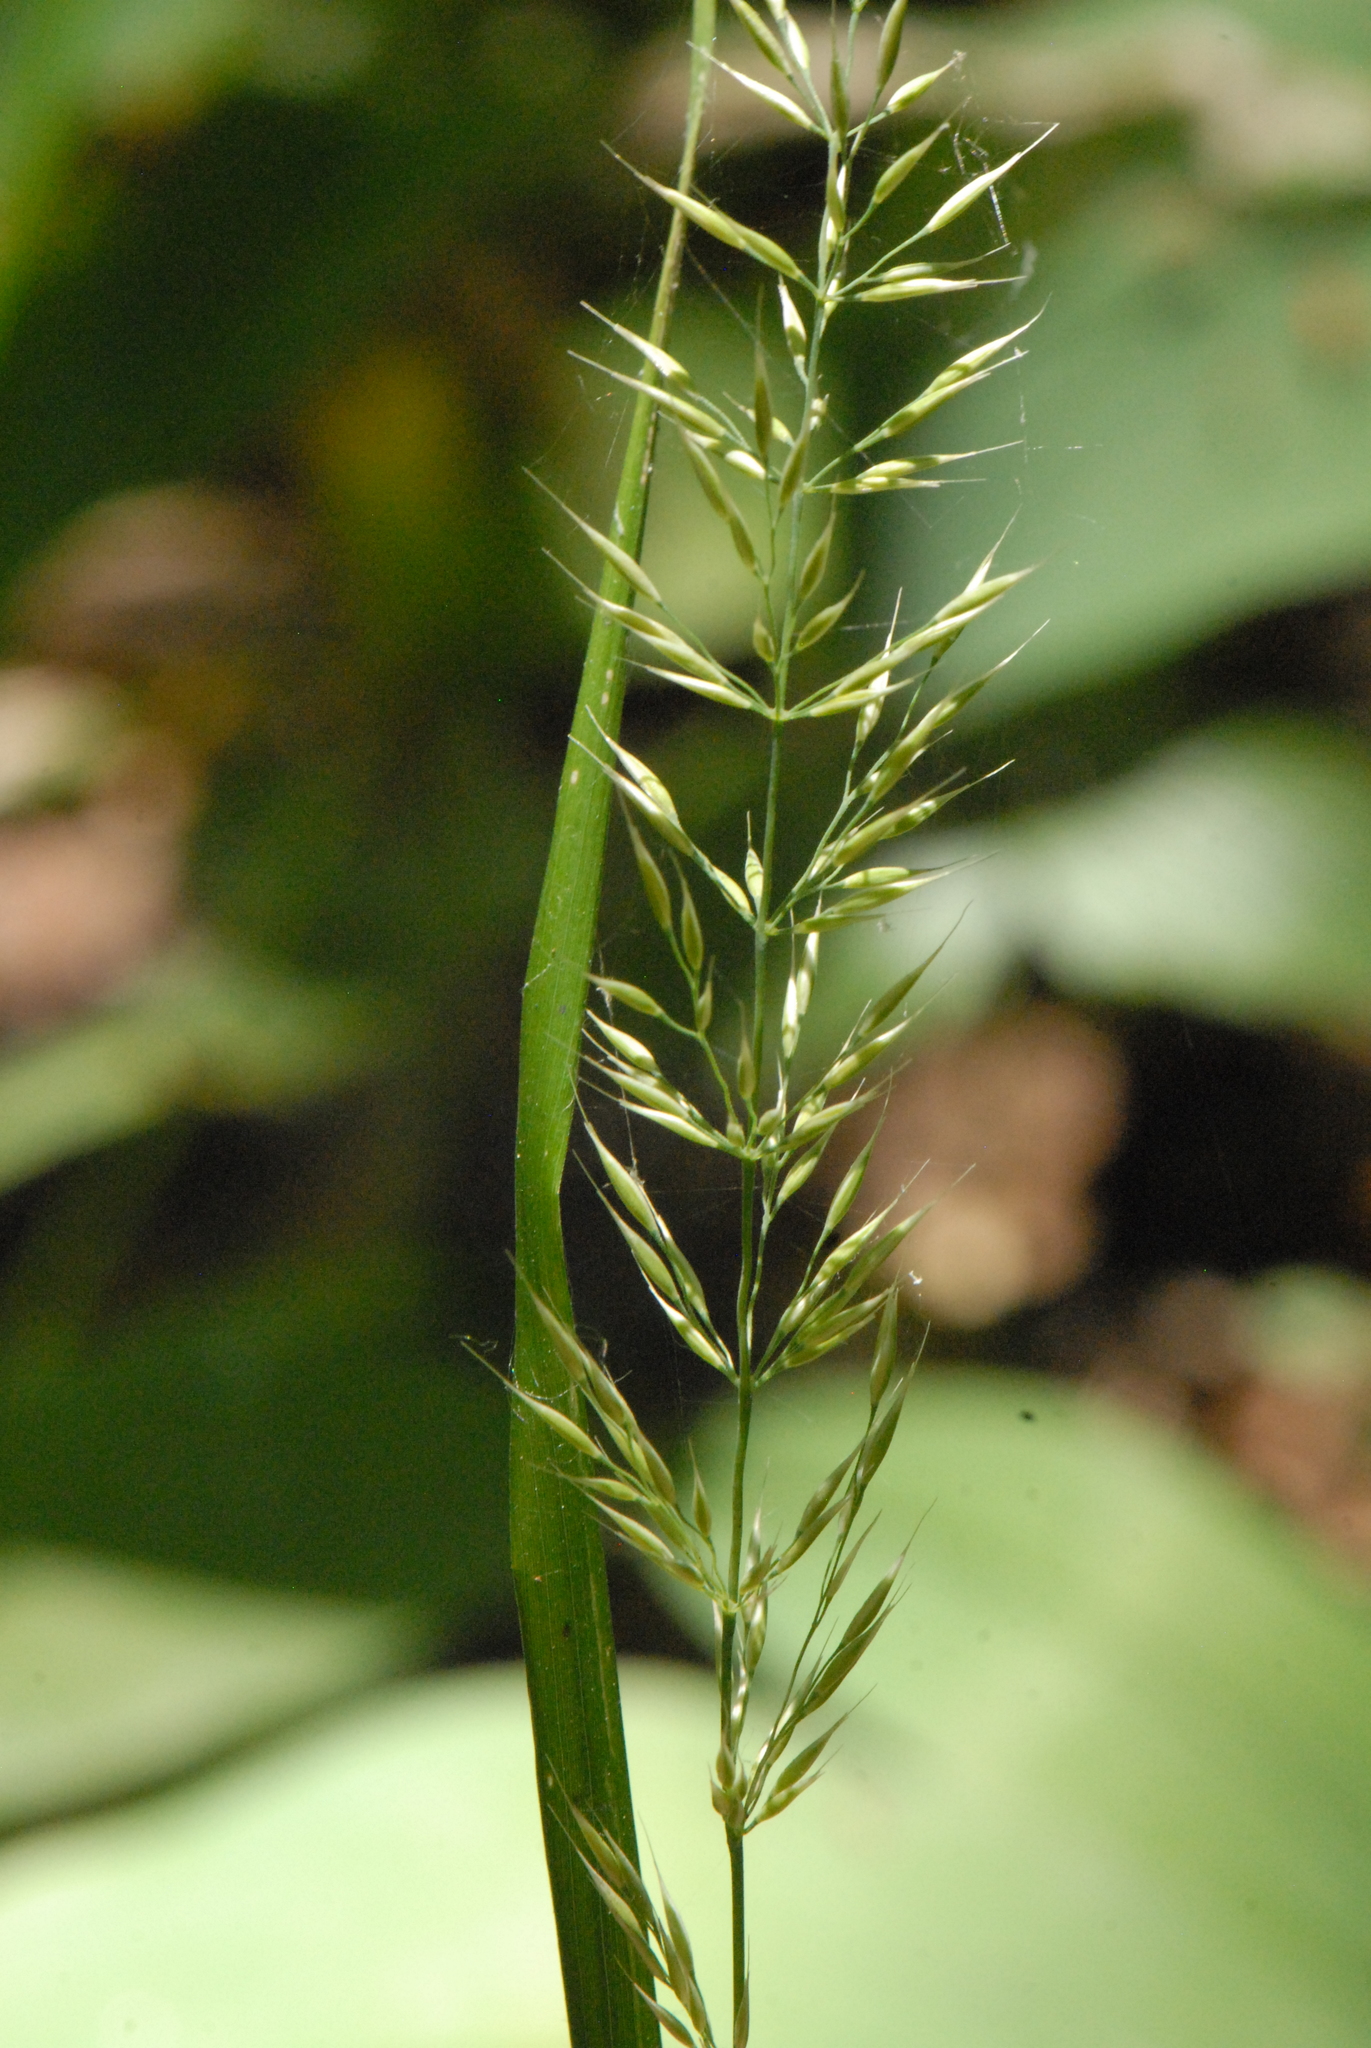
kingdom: Plantae
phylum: Tracheophyta
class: Liliopsida
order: Poales
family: Poaceae
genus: Arrhenatherum
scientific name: Arrhenatherum elatius
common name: Tall oatgrass
